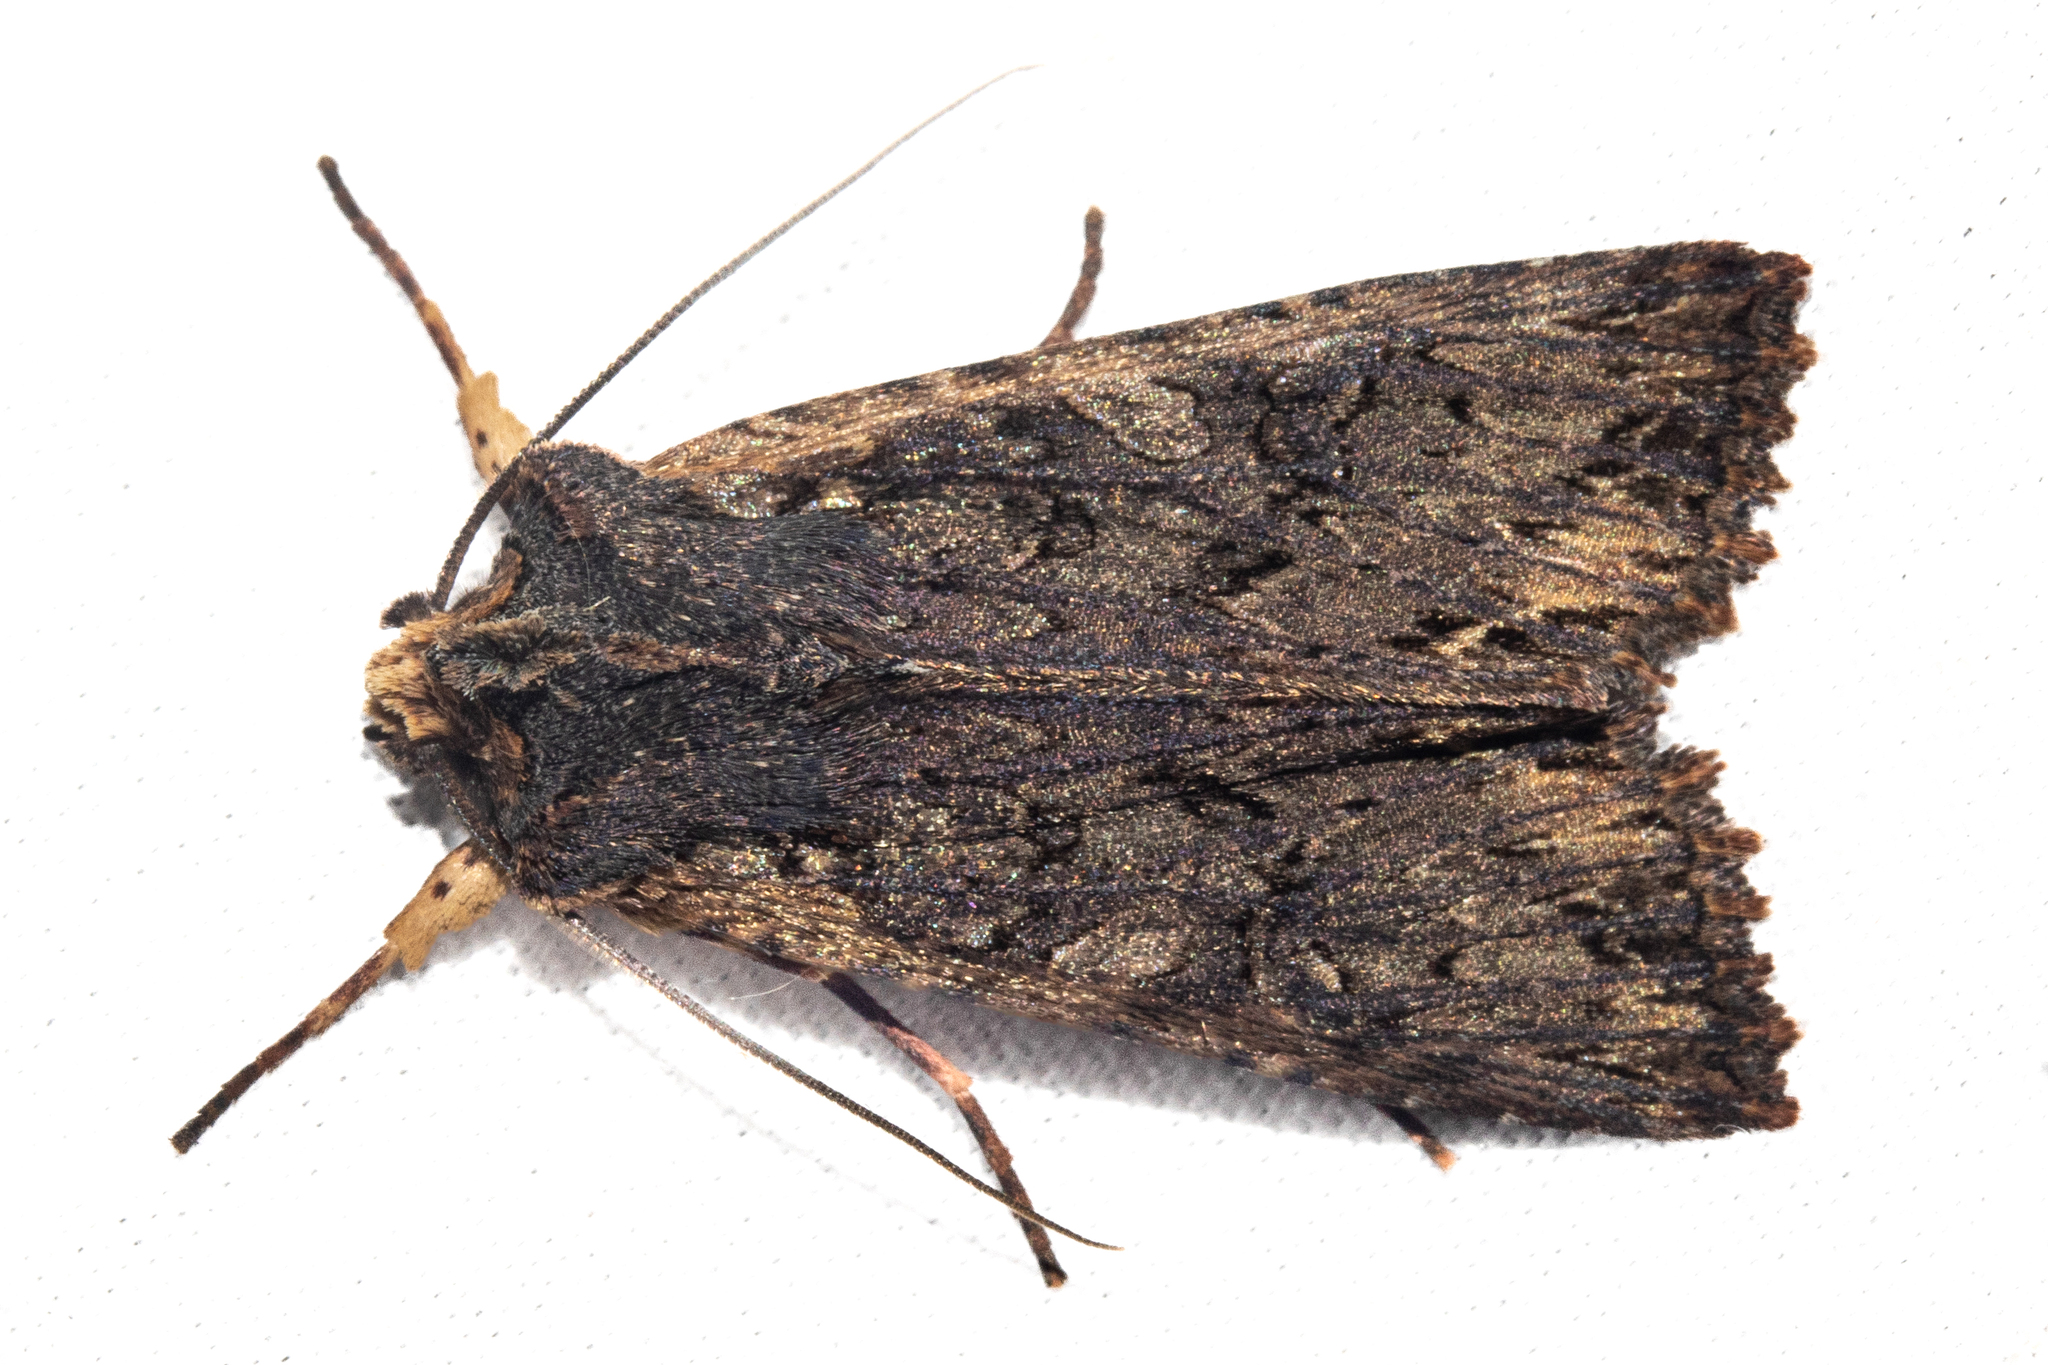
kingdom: Animalia
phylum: Arthropoda
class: Insecta
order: Lepidoptera
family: Noctuidae
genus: Meterana
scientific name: Meterana alcyone
